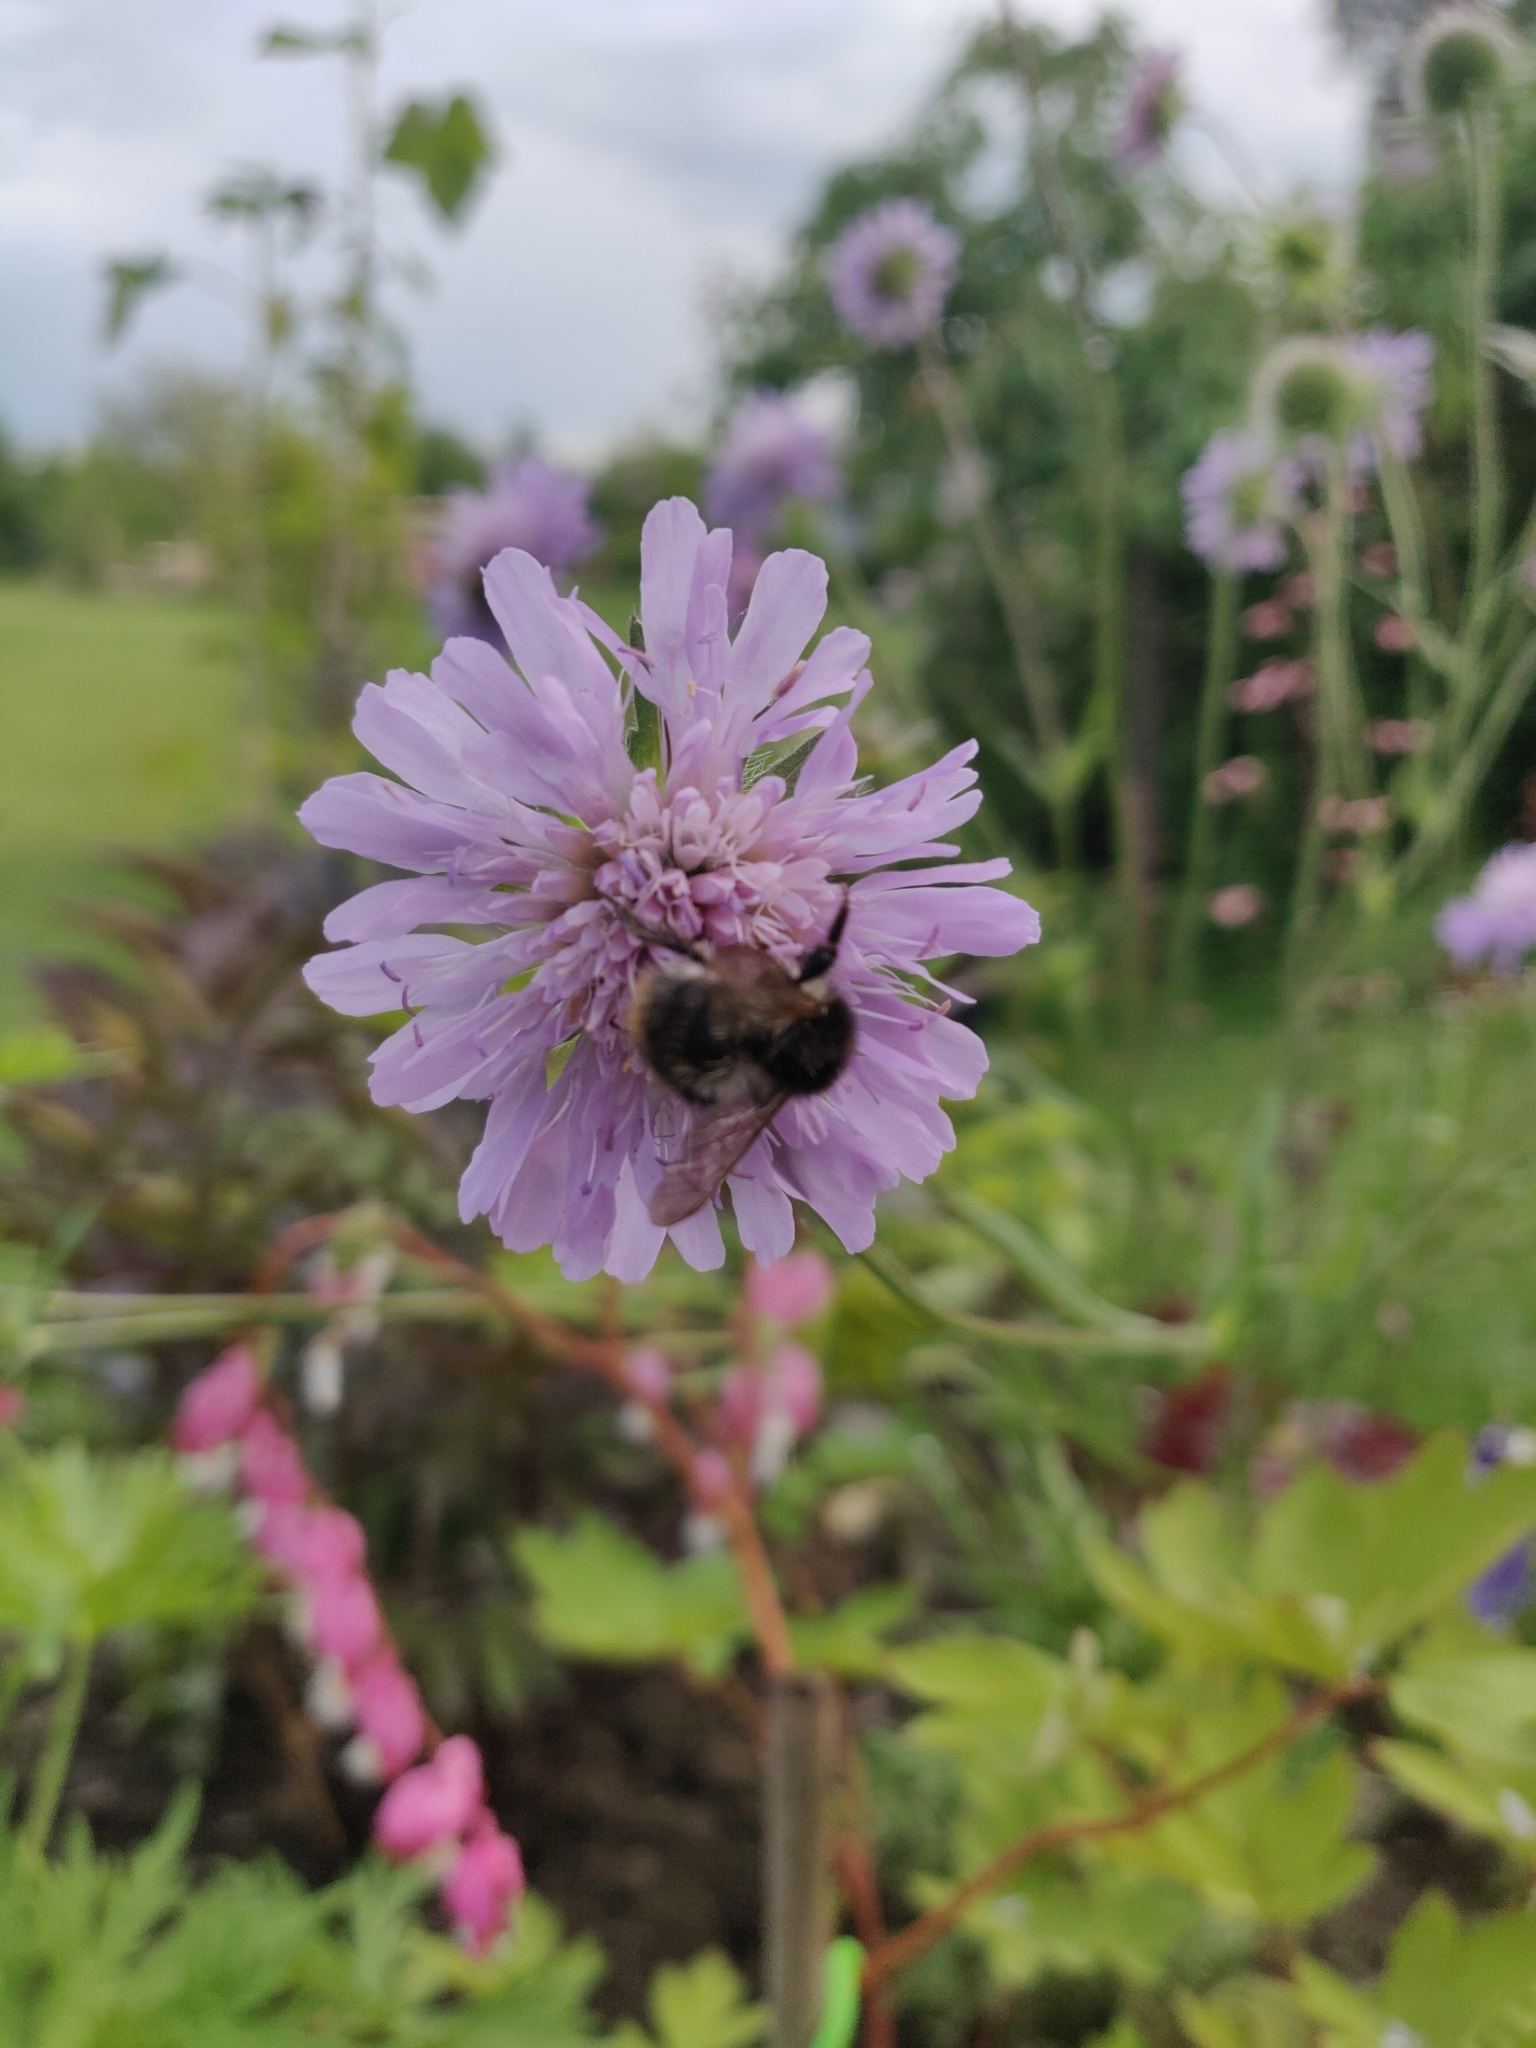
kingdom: Animalia
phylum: Arthropoda
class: Insecta
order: Hymenoptera
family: Apidae
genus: Bombus
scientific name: Bombus pascuorum
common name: Common carder bee
